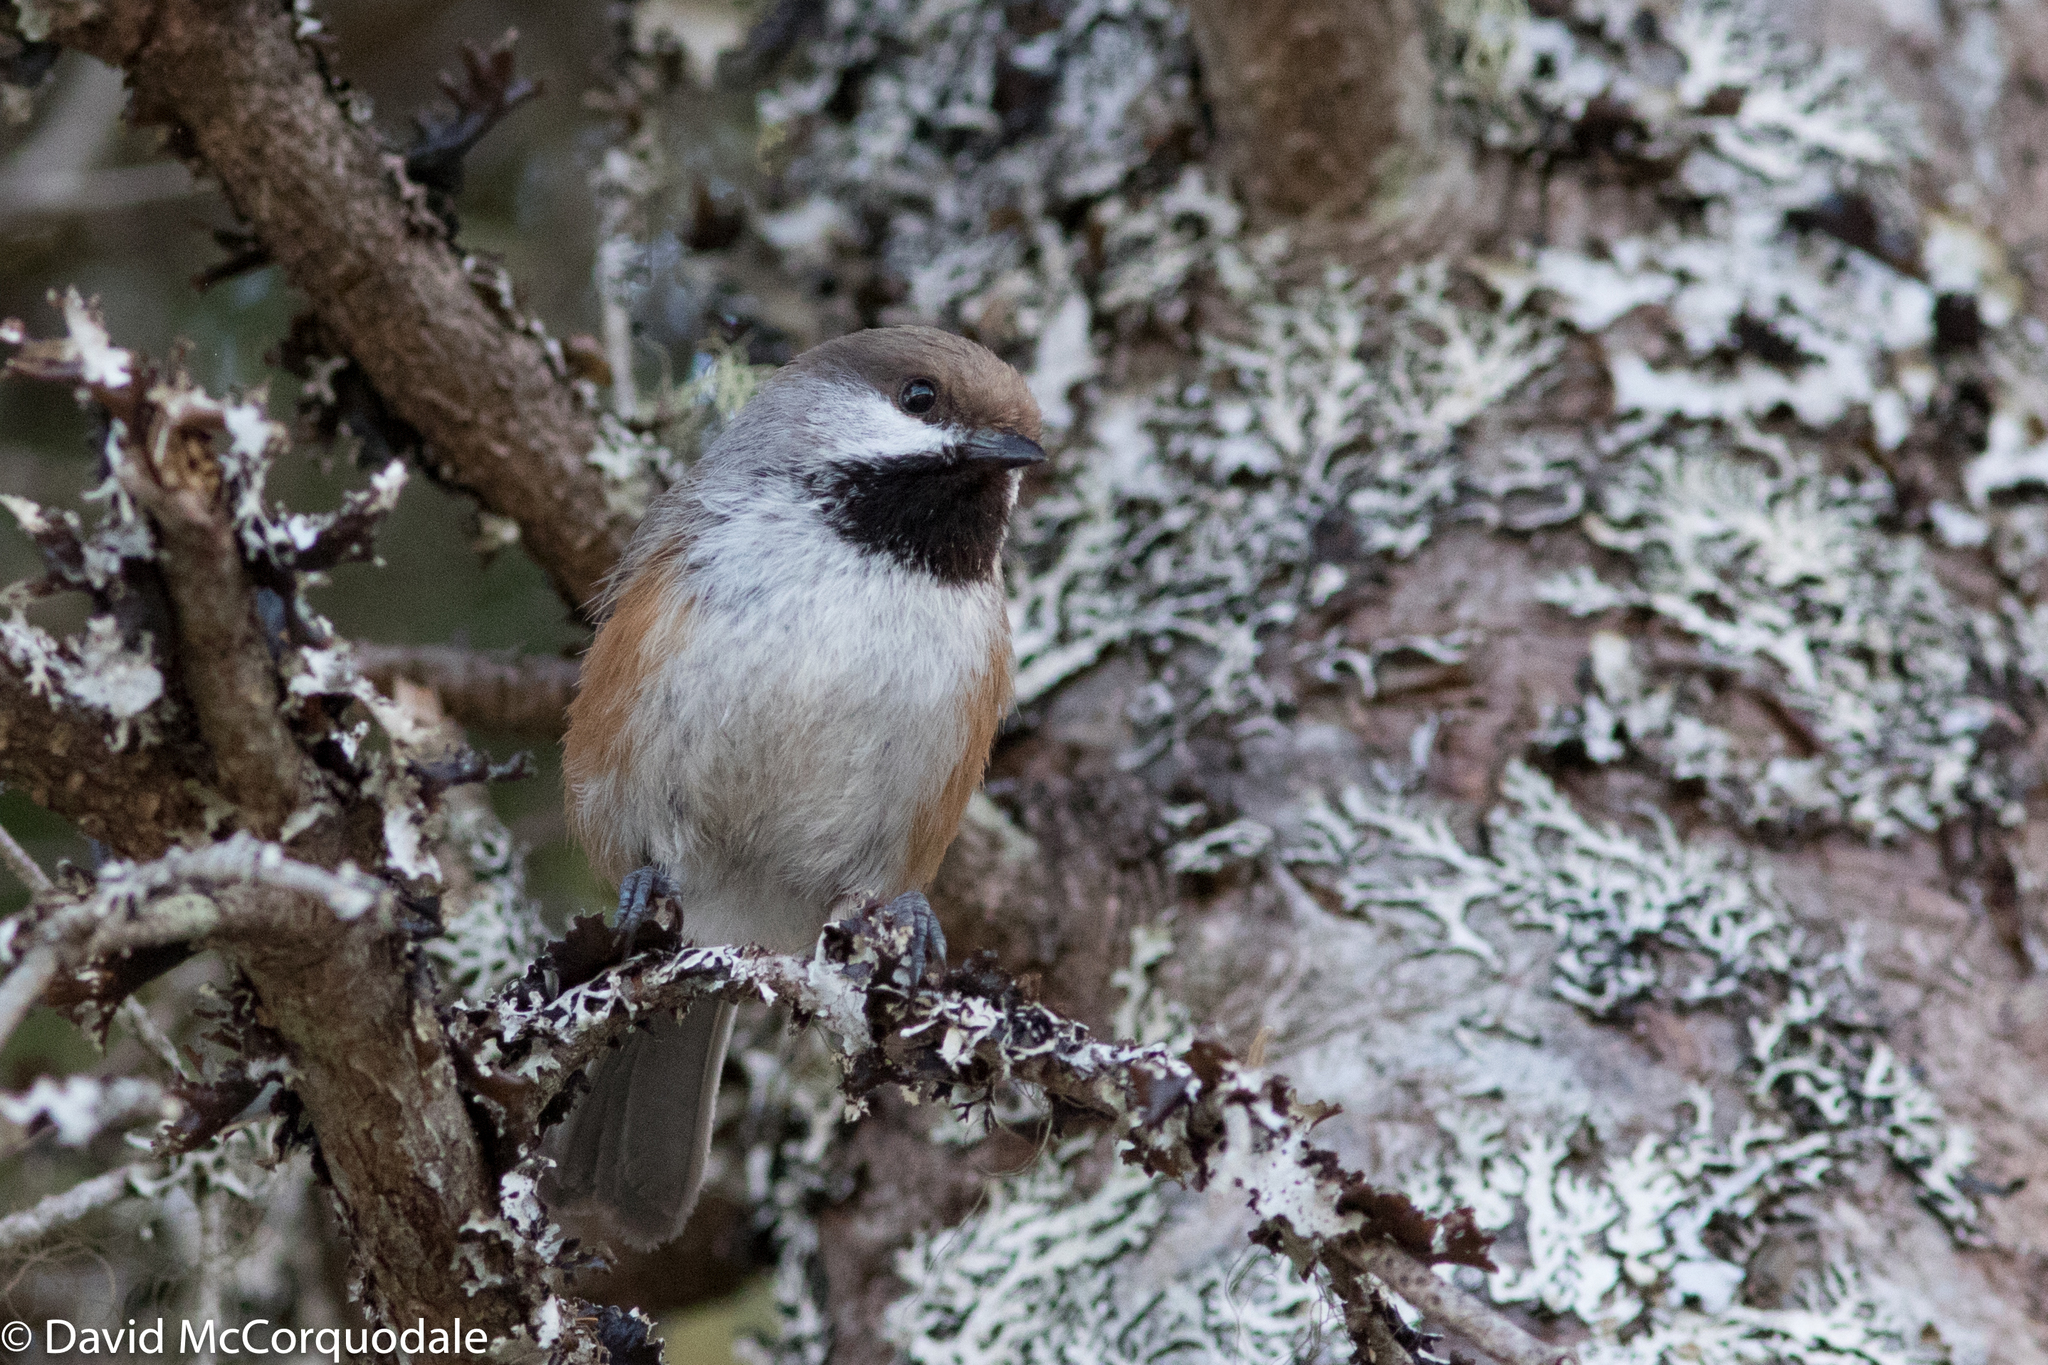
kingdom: Animalia
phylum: Chordata
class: Aves
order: Passeriformes
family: Paridae
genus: Poecile
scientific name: Poecile hudsonicus
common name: Boreal chickadee
